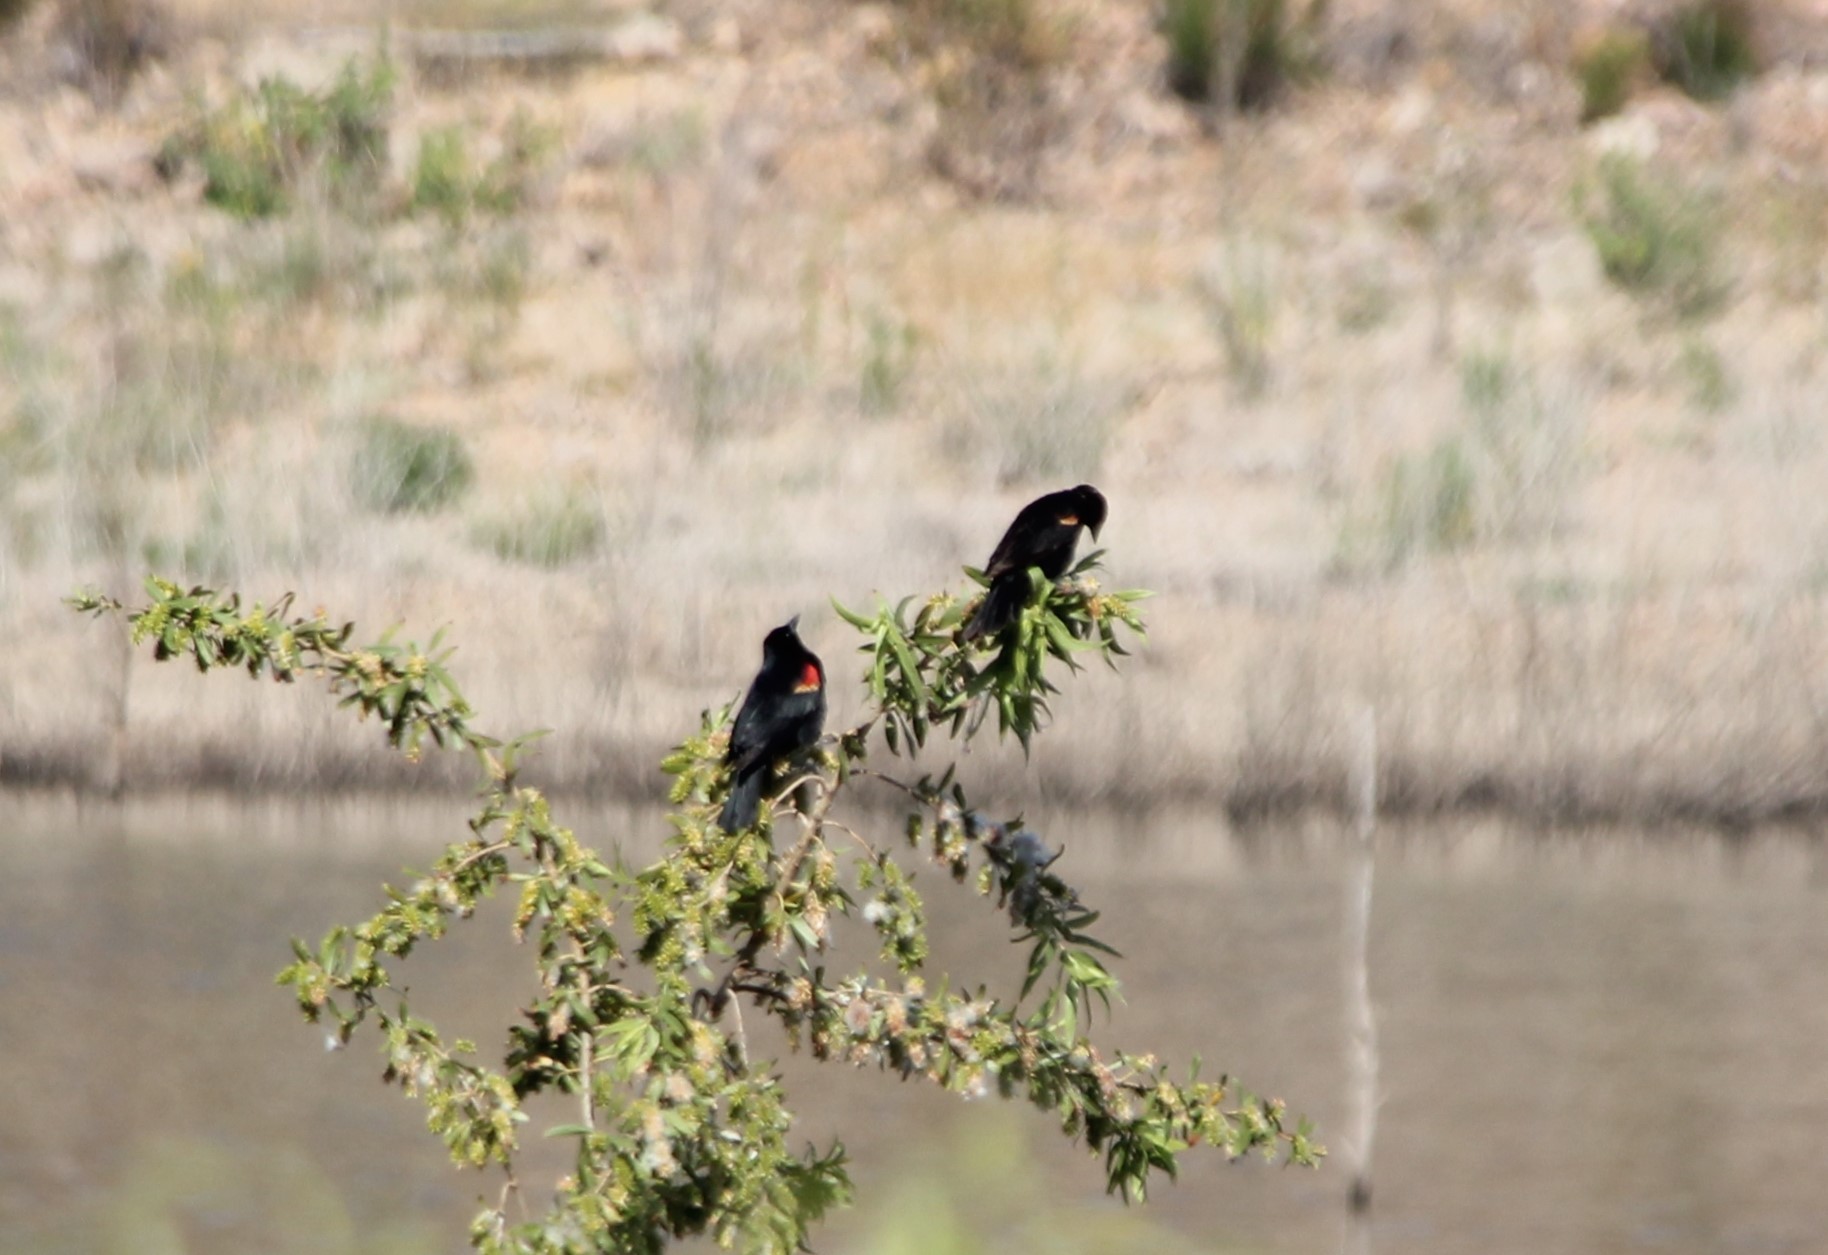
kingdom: Animalia
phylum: Chordata
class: Aves
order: Passeriformes
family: Icteridae
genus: Agelaius
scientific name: Agelaius phoeniceus
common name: Red-winged blackbird
